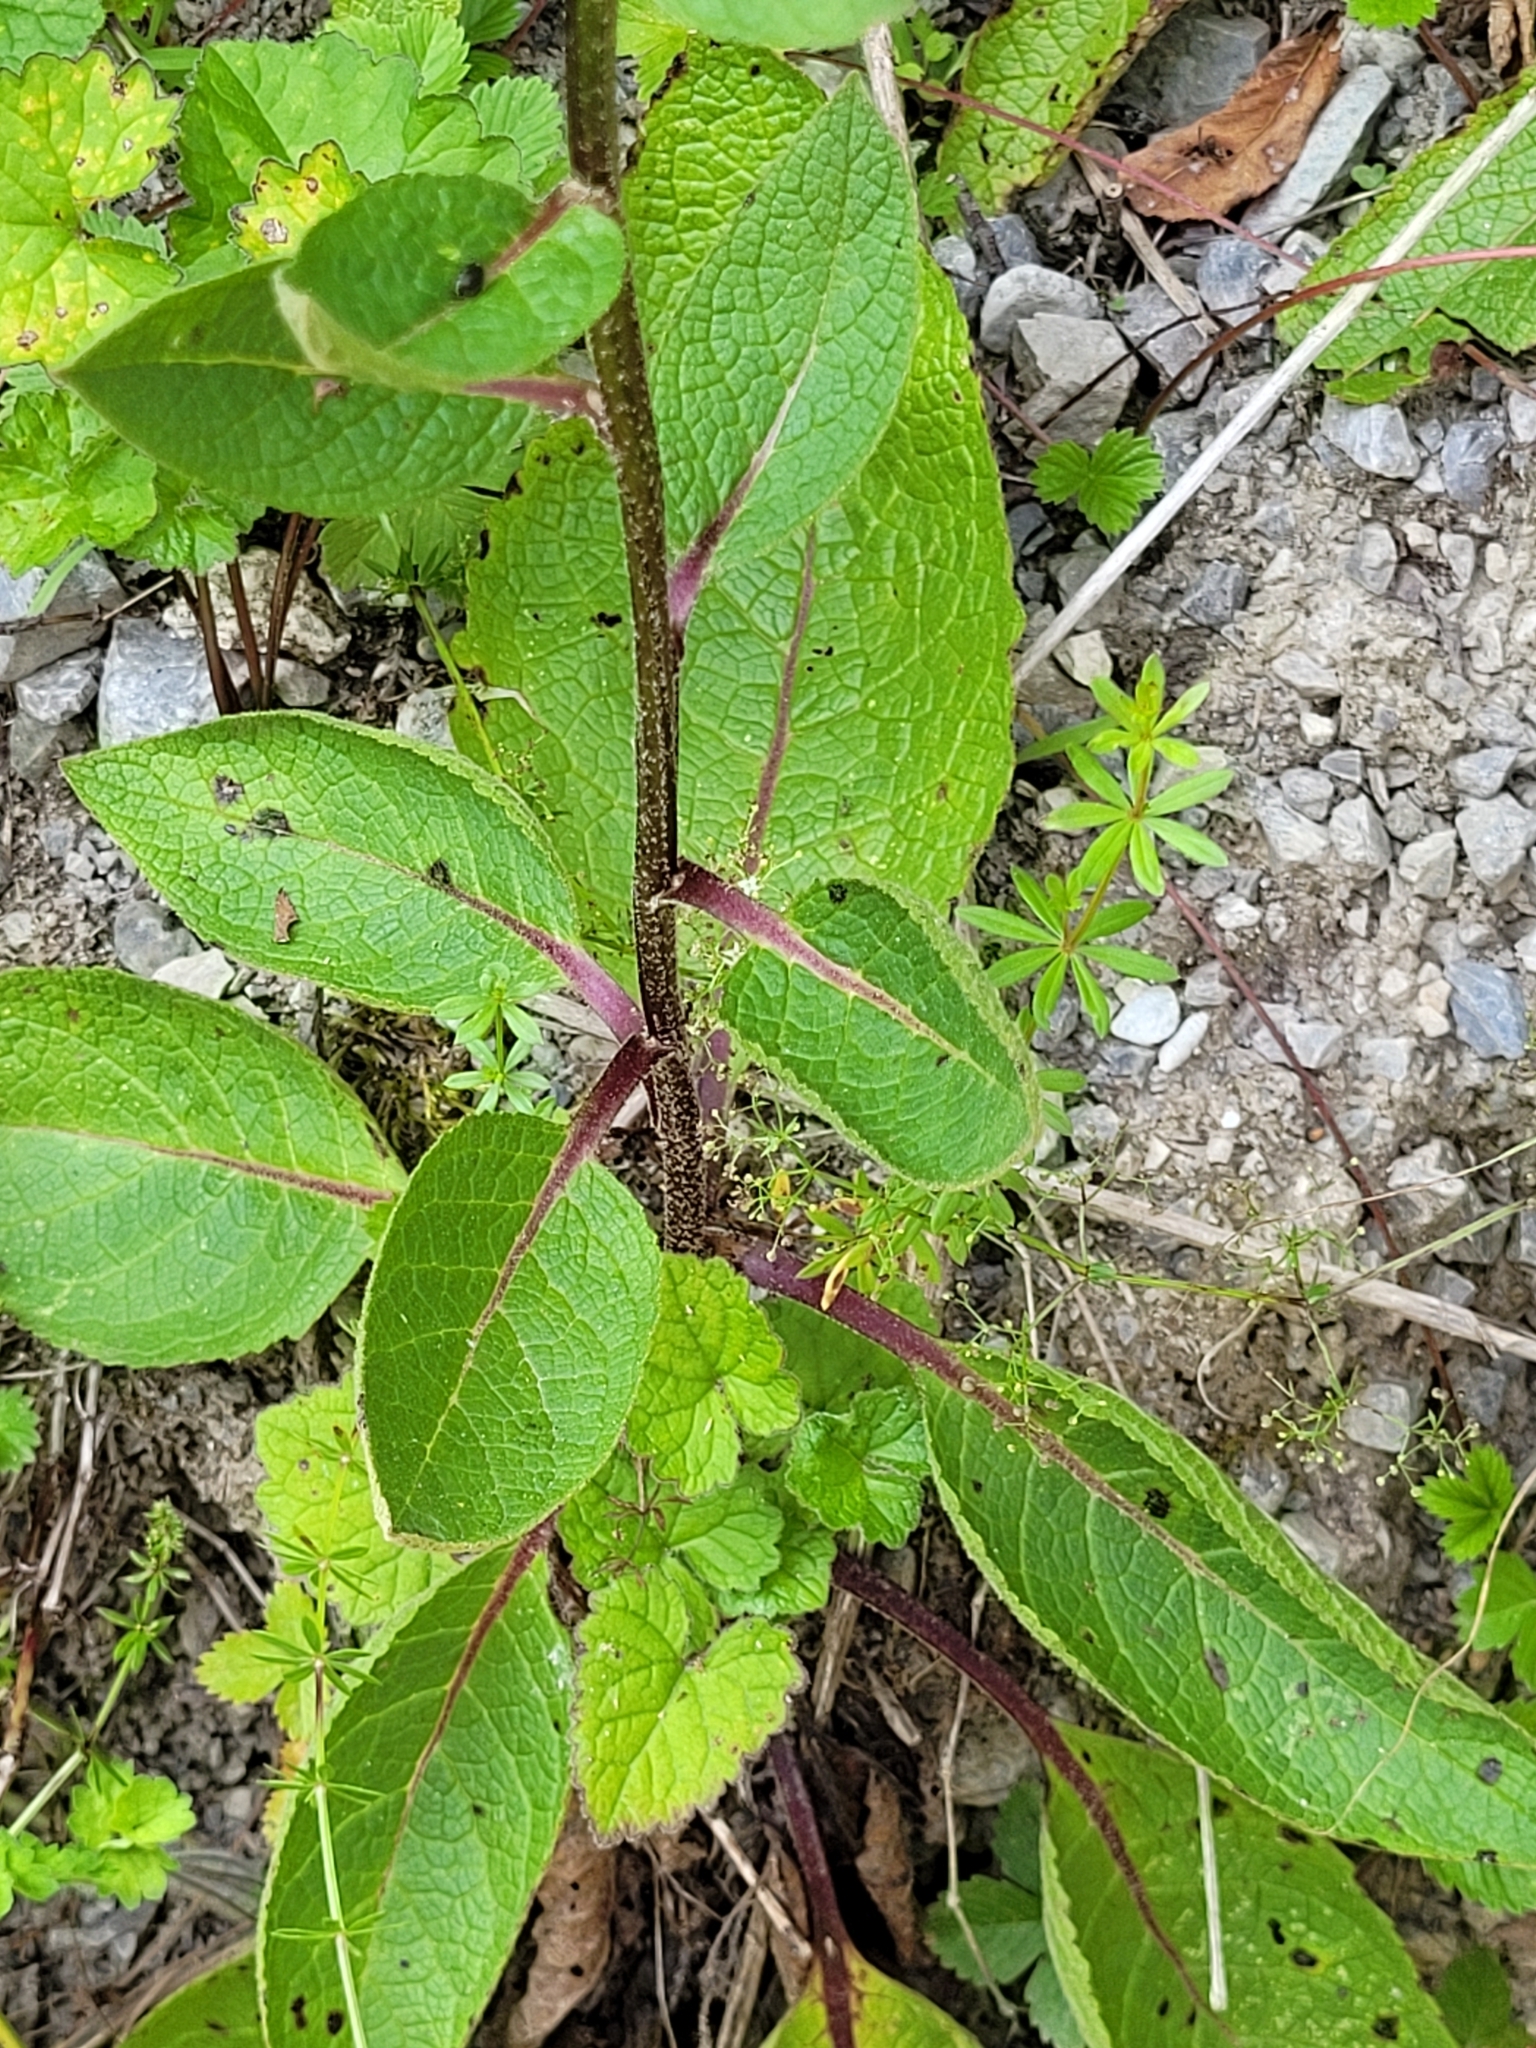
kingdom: Plantae
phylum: Tracheophyta
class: Magnoliopsida
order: Lamiales
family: Scrophulariaceae
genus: Verbascum
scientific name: Verbascum chaixii
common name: Nettle-leaved mullein
